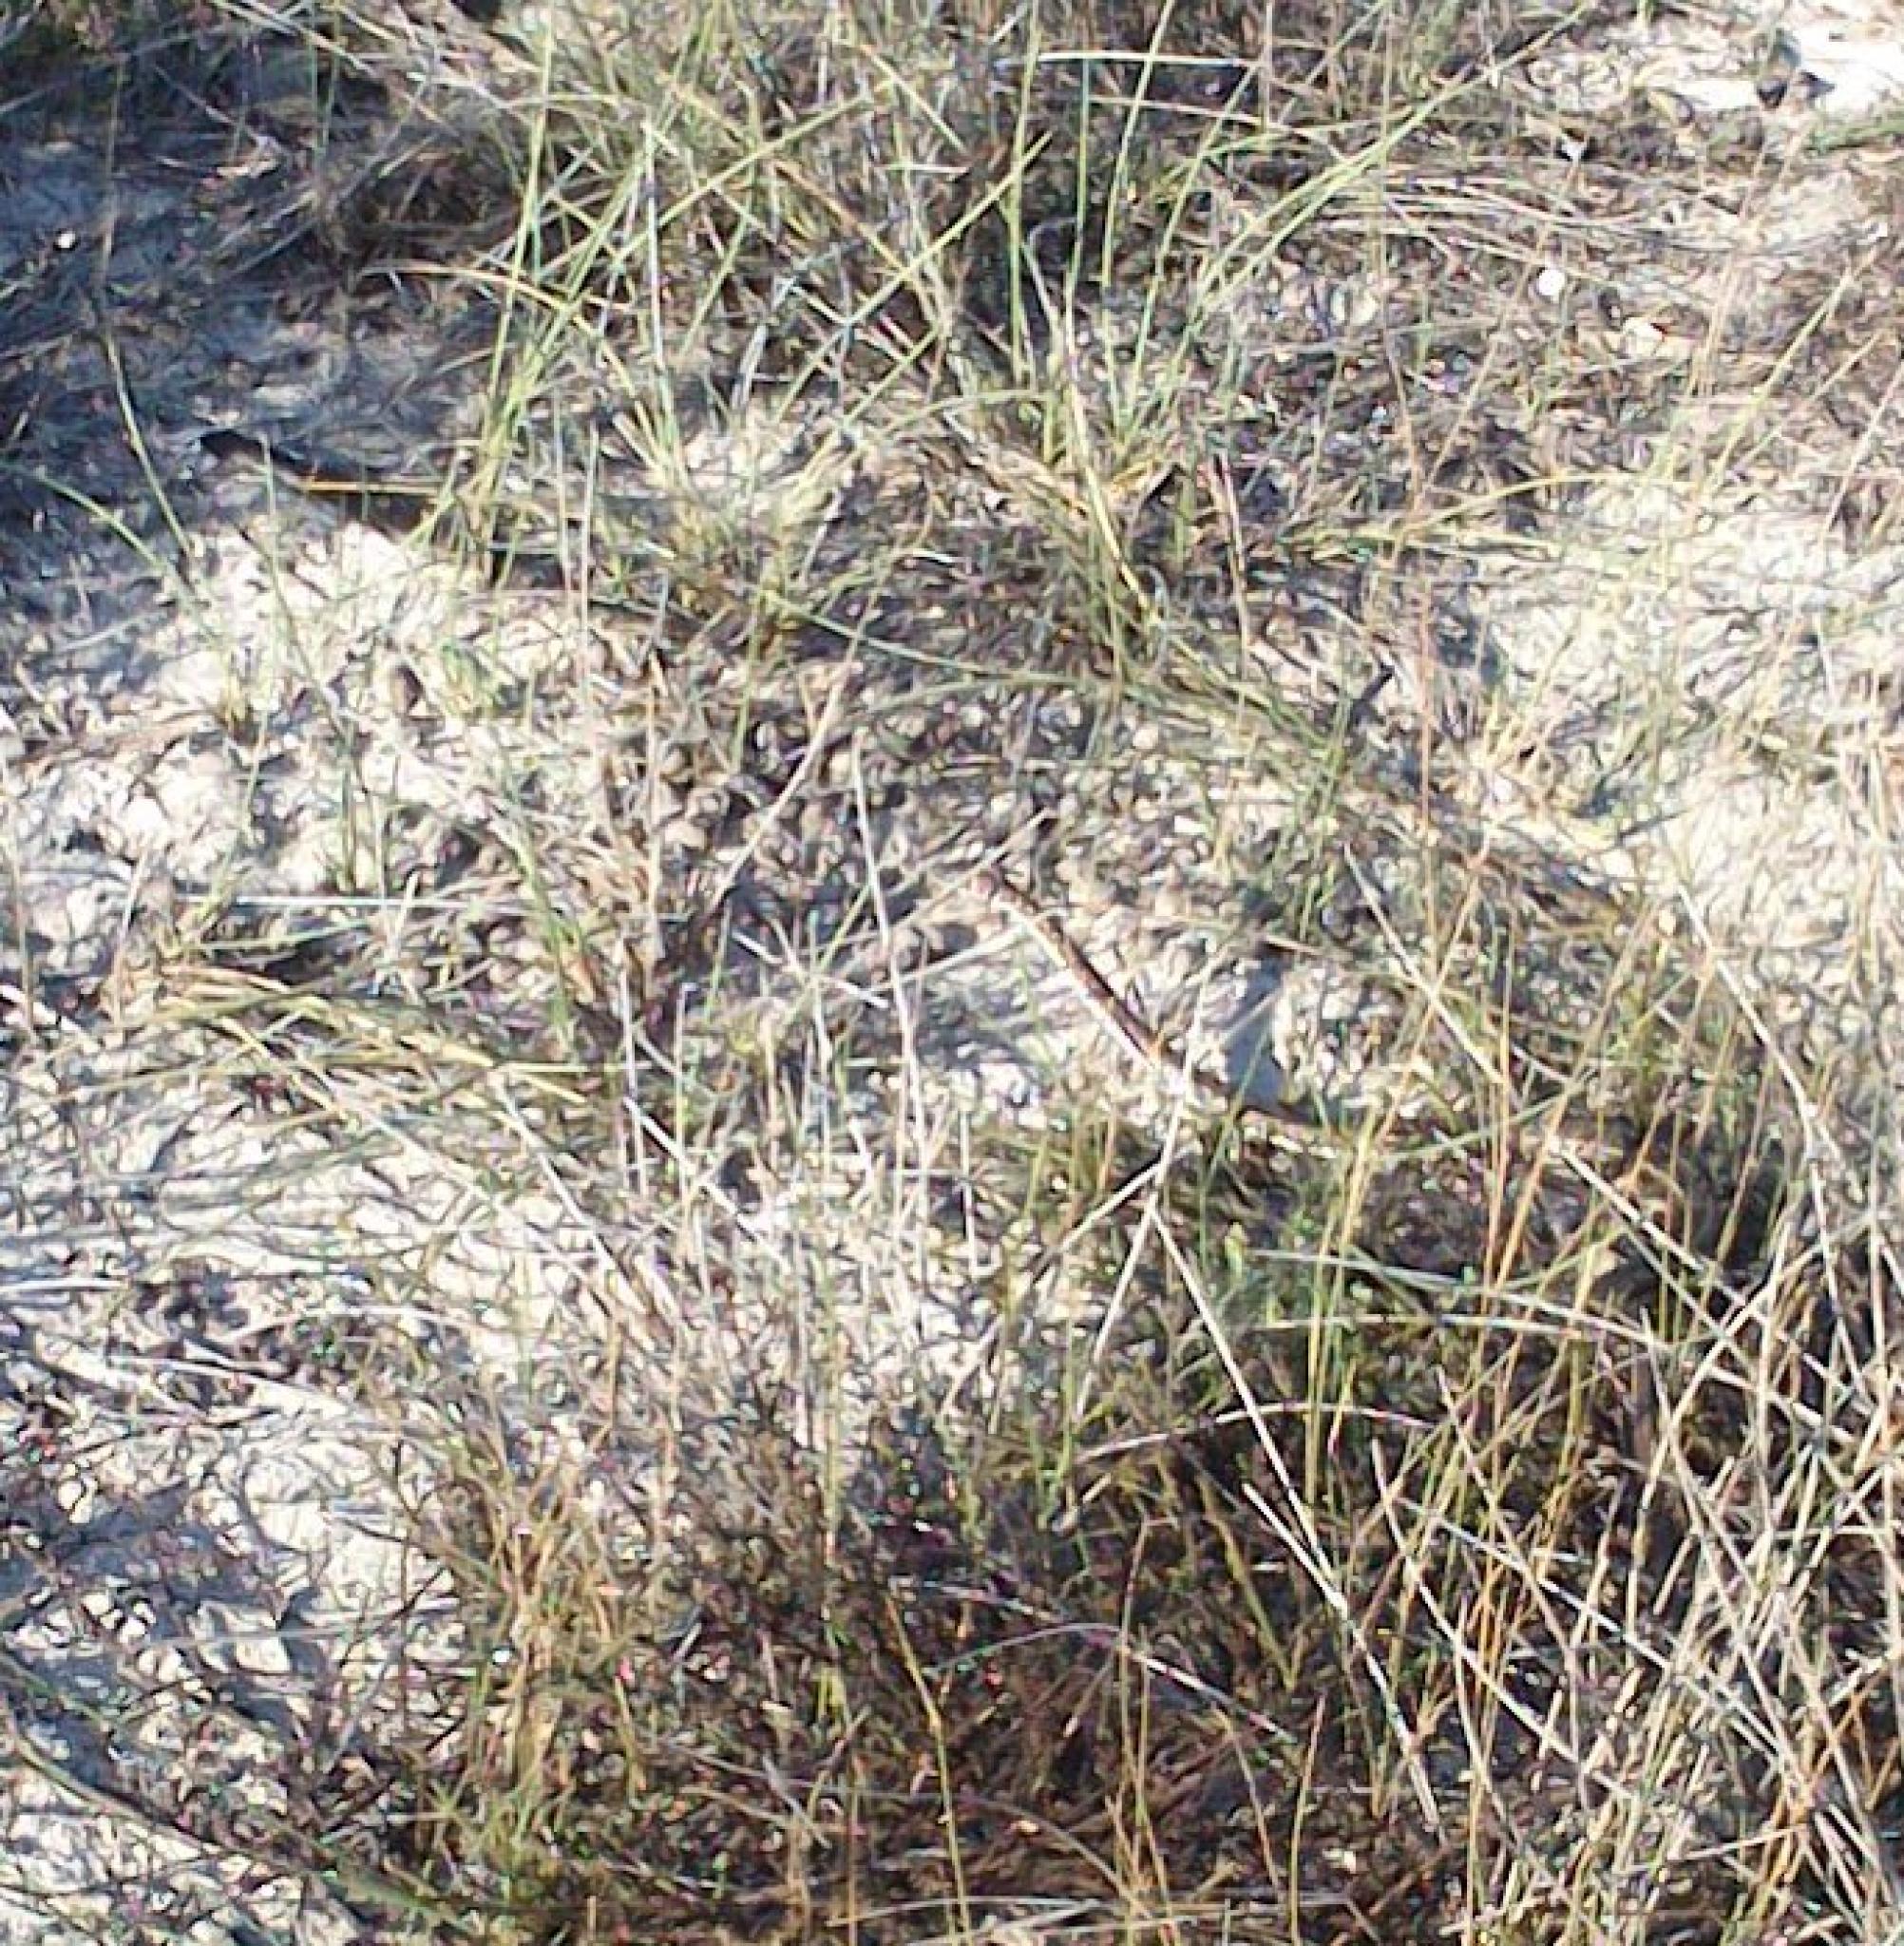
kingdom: Animalia
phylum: Chordata
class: Squamata
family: Psammophiidae
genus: Psammophis
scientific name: Psammophis leightoni
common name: Cape sand snake
